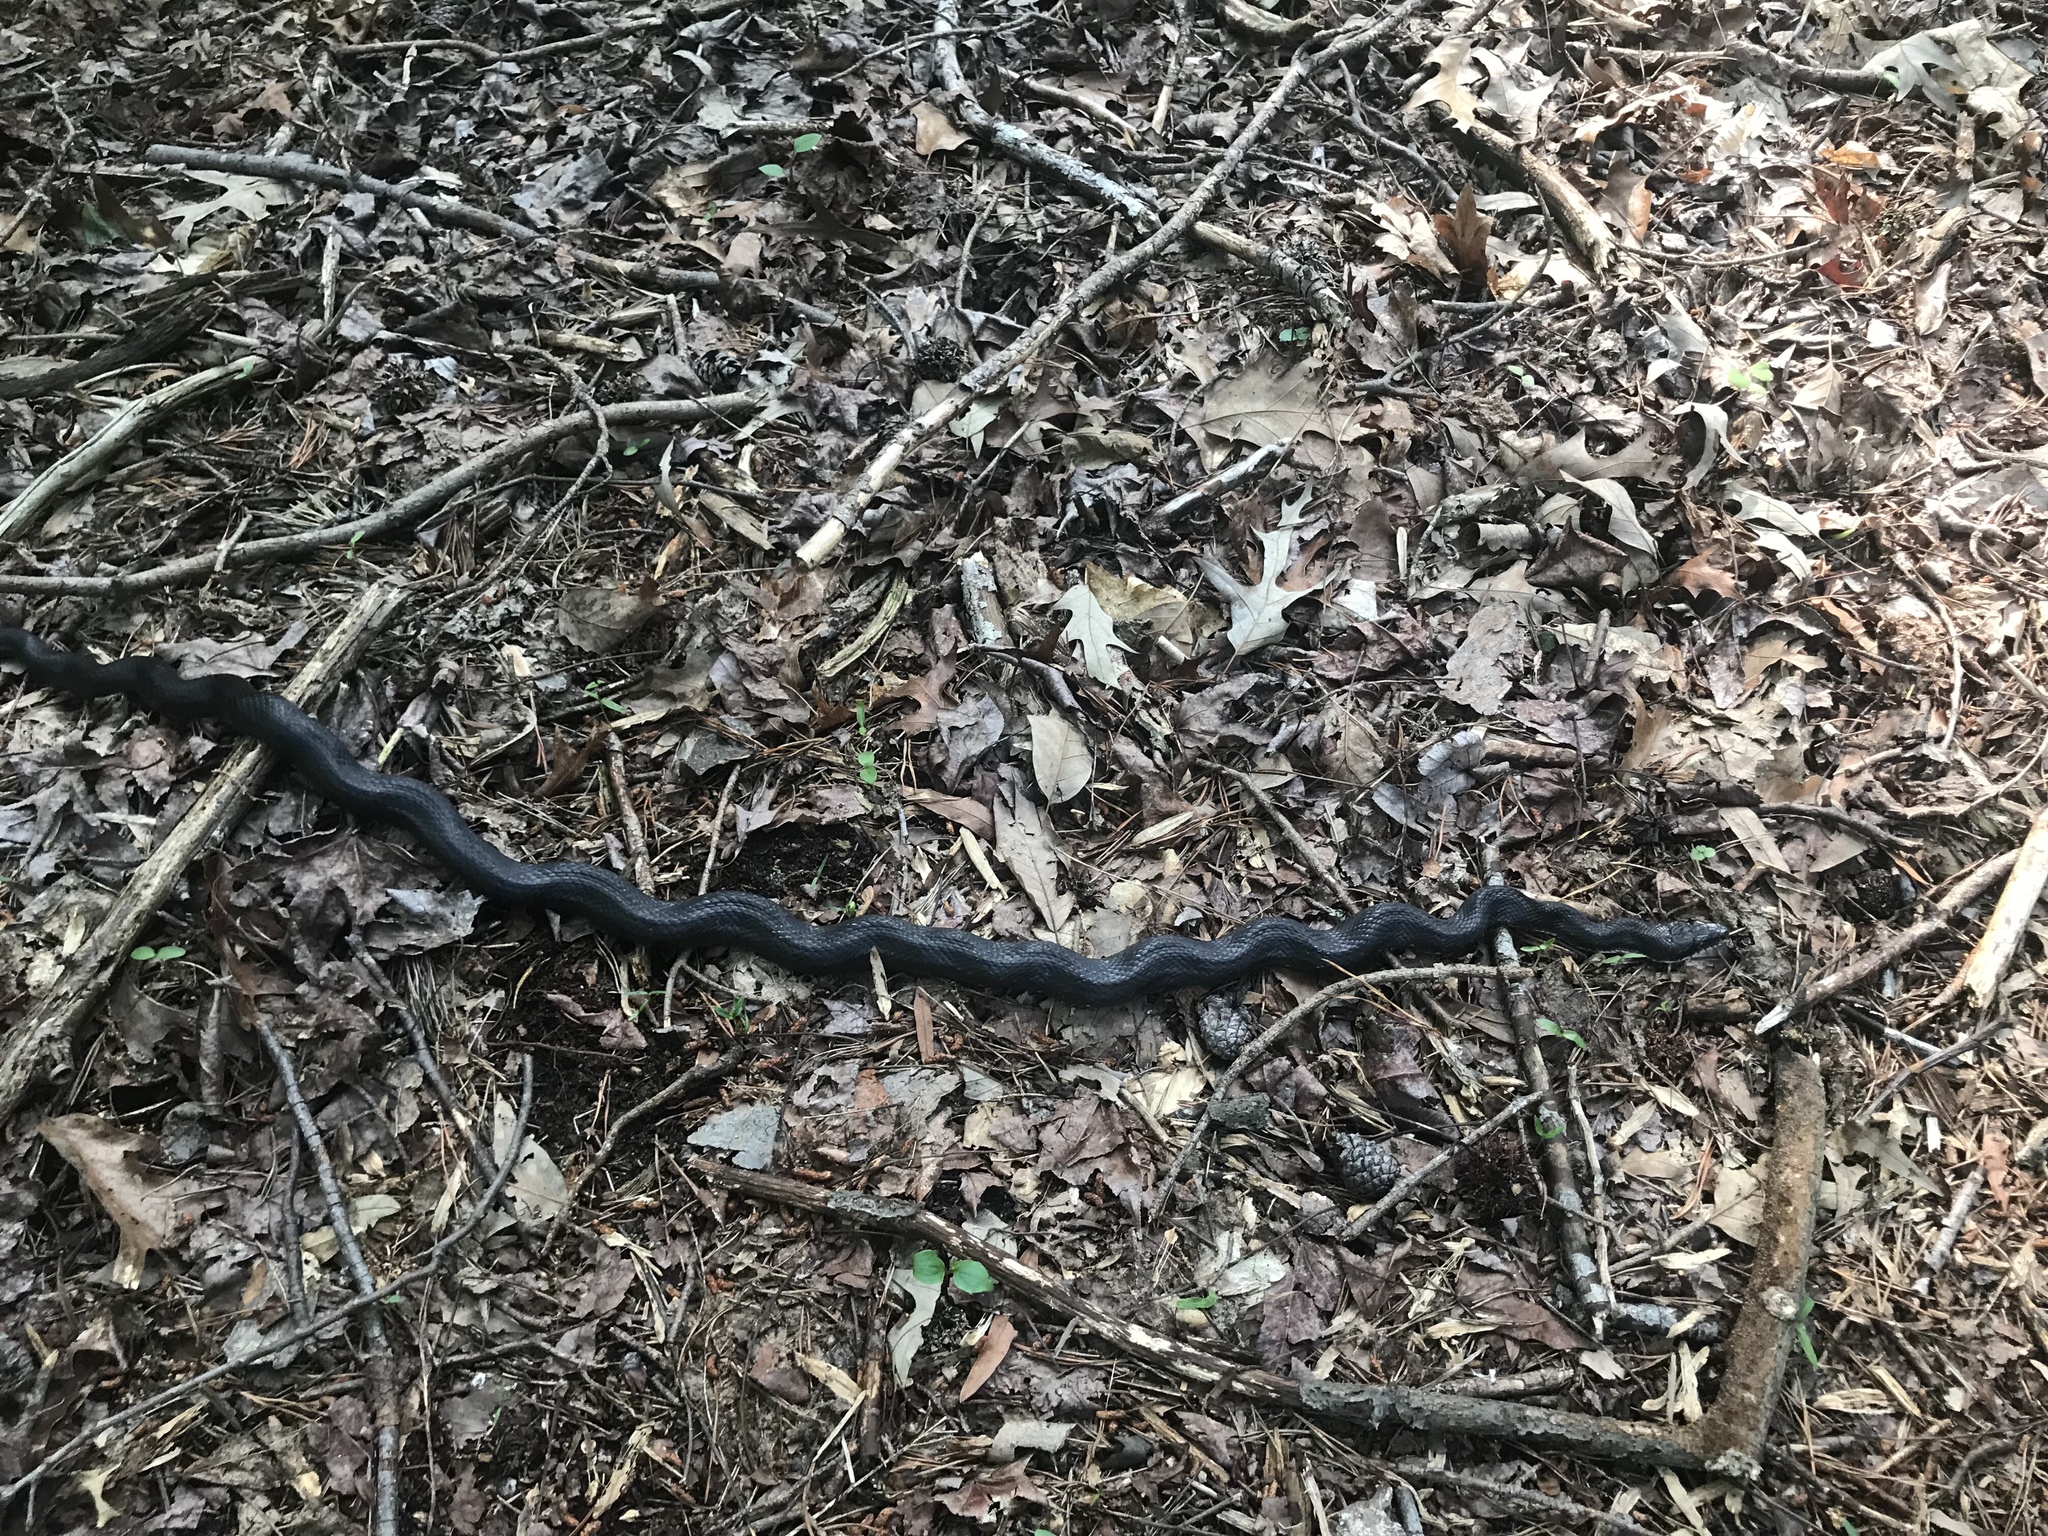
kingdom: Animalia
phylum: Chordata
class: Squamata
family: Colubridae
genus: Pantherophis
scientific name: Pantherophis alleghaniensis
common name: Eastern rat snake
